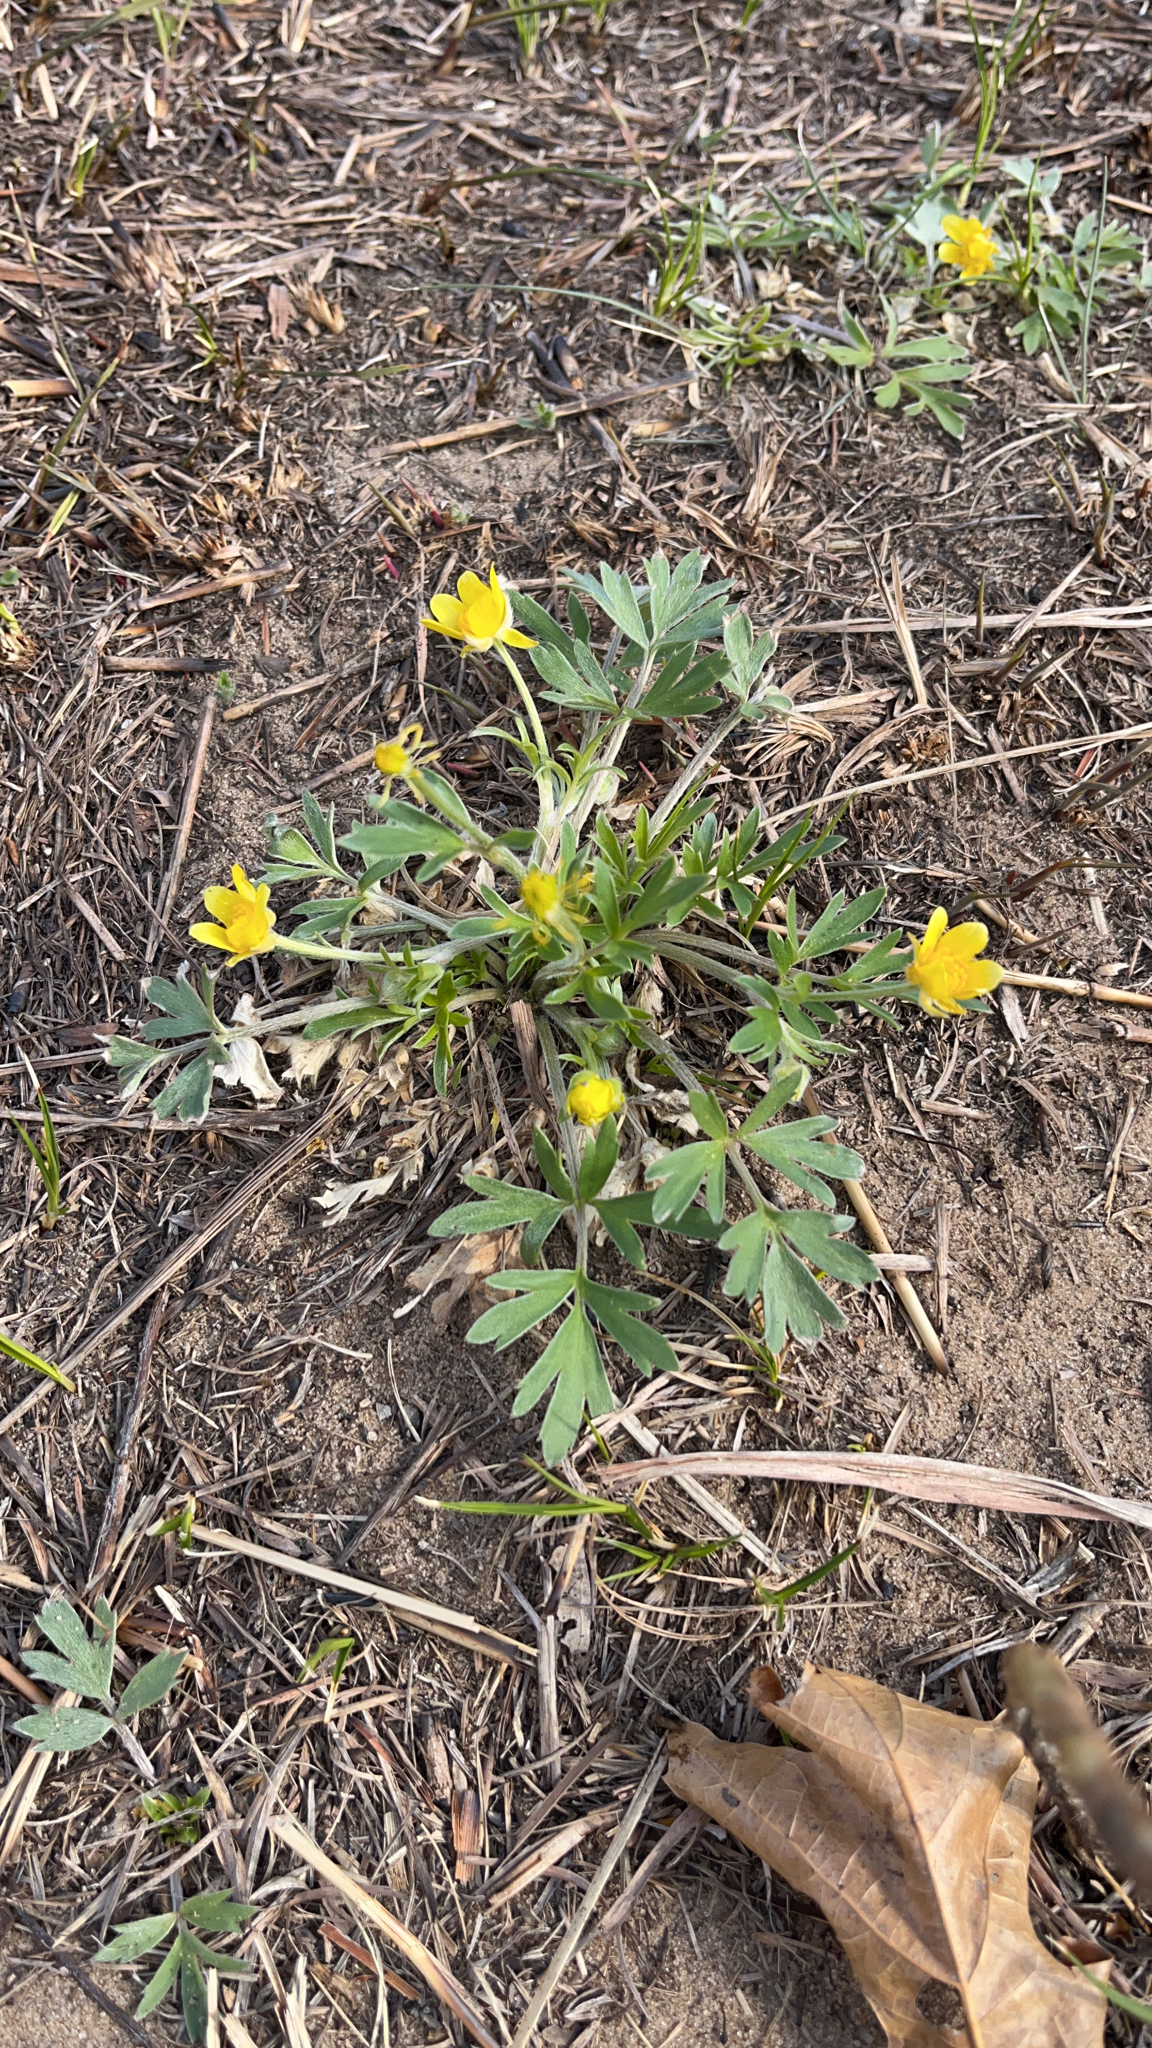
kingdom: Plantae
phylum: Tracheophyta
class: Magnoliopsida
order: Ranunculales
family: Ranunculaceae
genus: Ranunculus
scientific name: Ranunculus fascicularis
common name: Early buttercup
